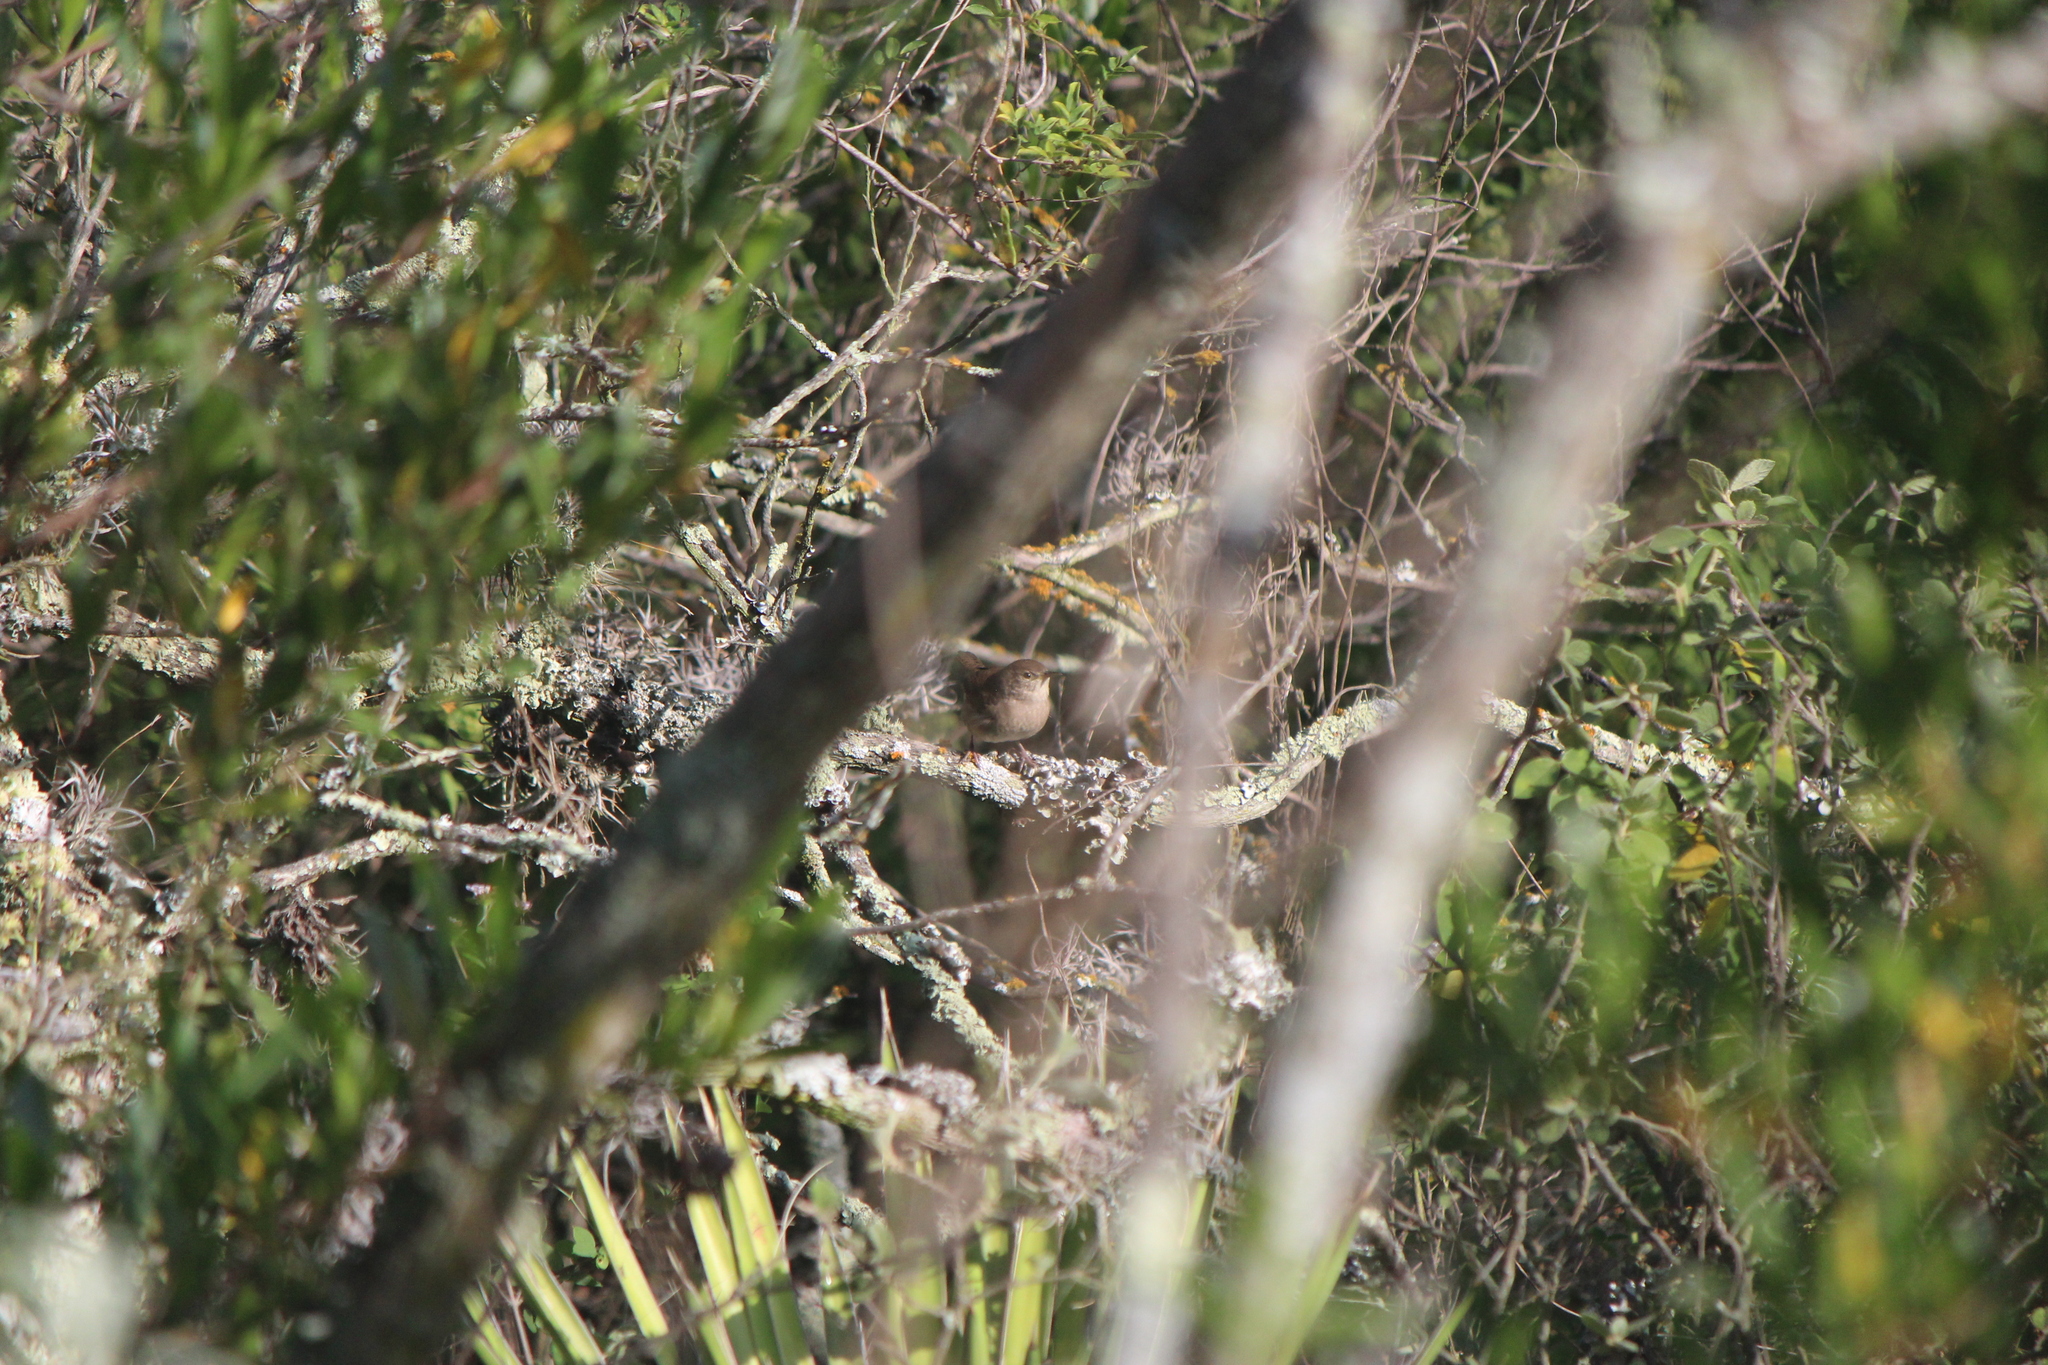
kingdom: Animalia
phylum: Chordata
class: Aves
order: Passeriformes
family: Troglodytidae
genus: Troglodytes
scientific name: Troglodytes aedon
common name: House wren
